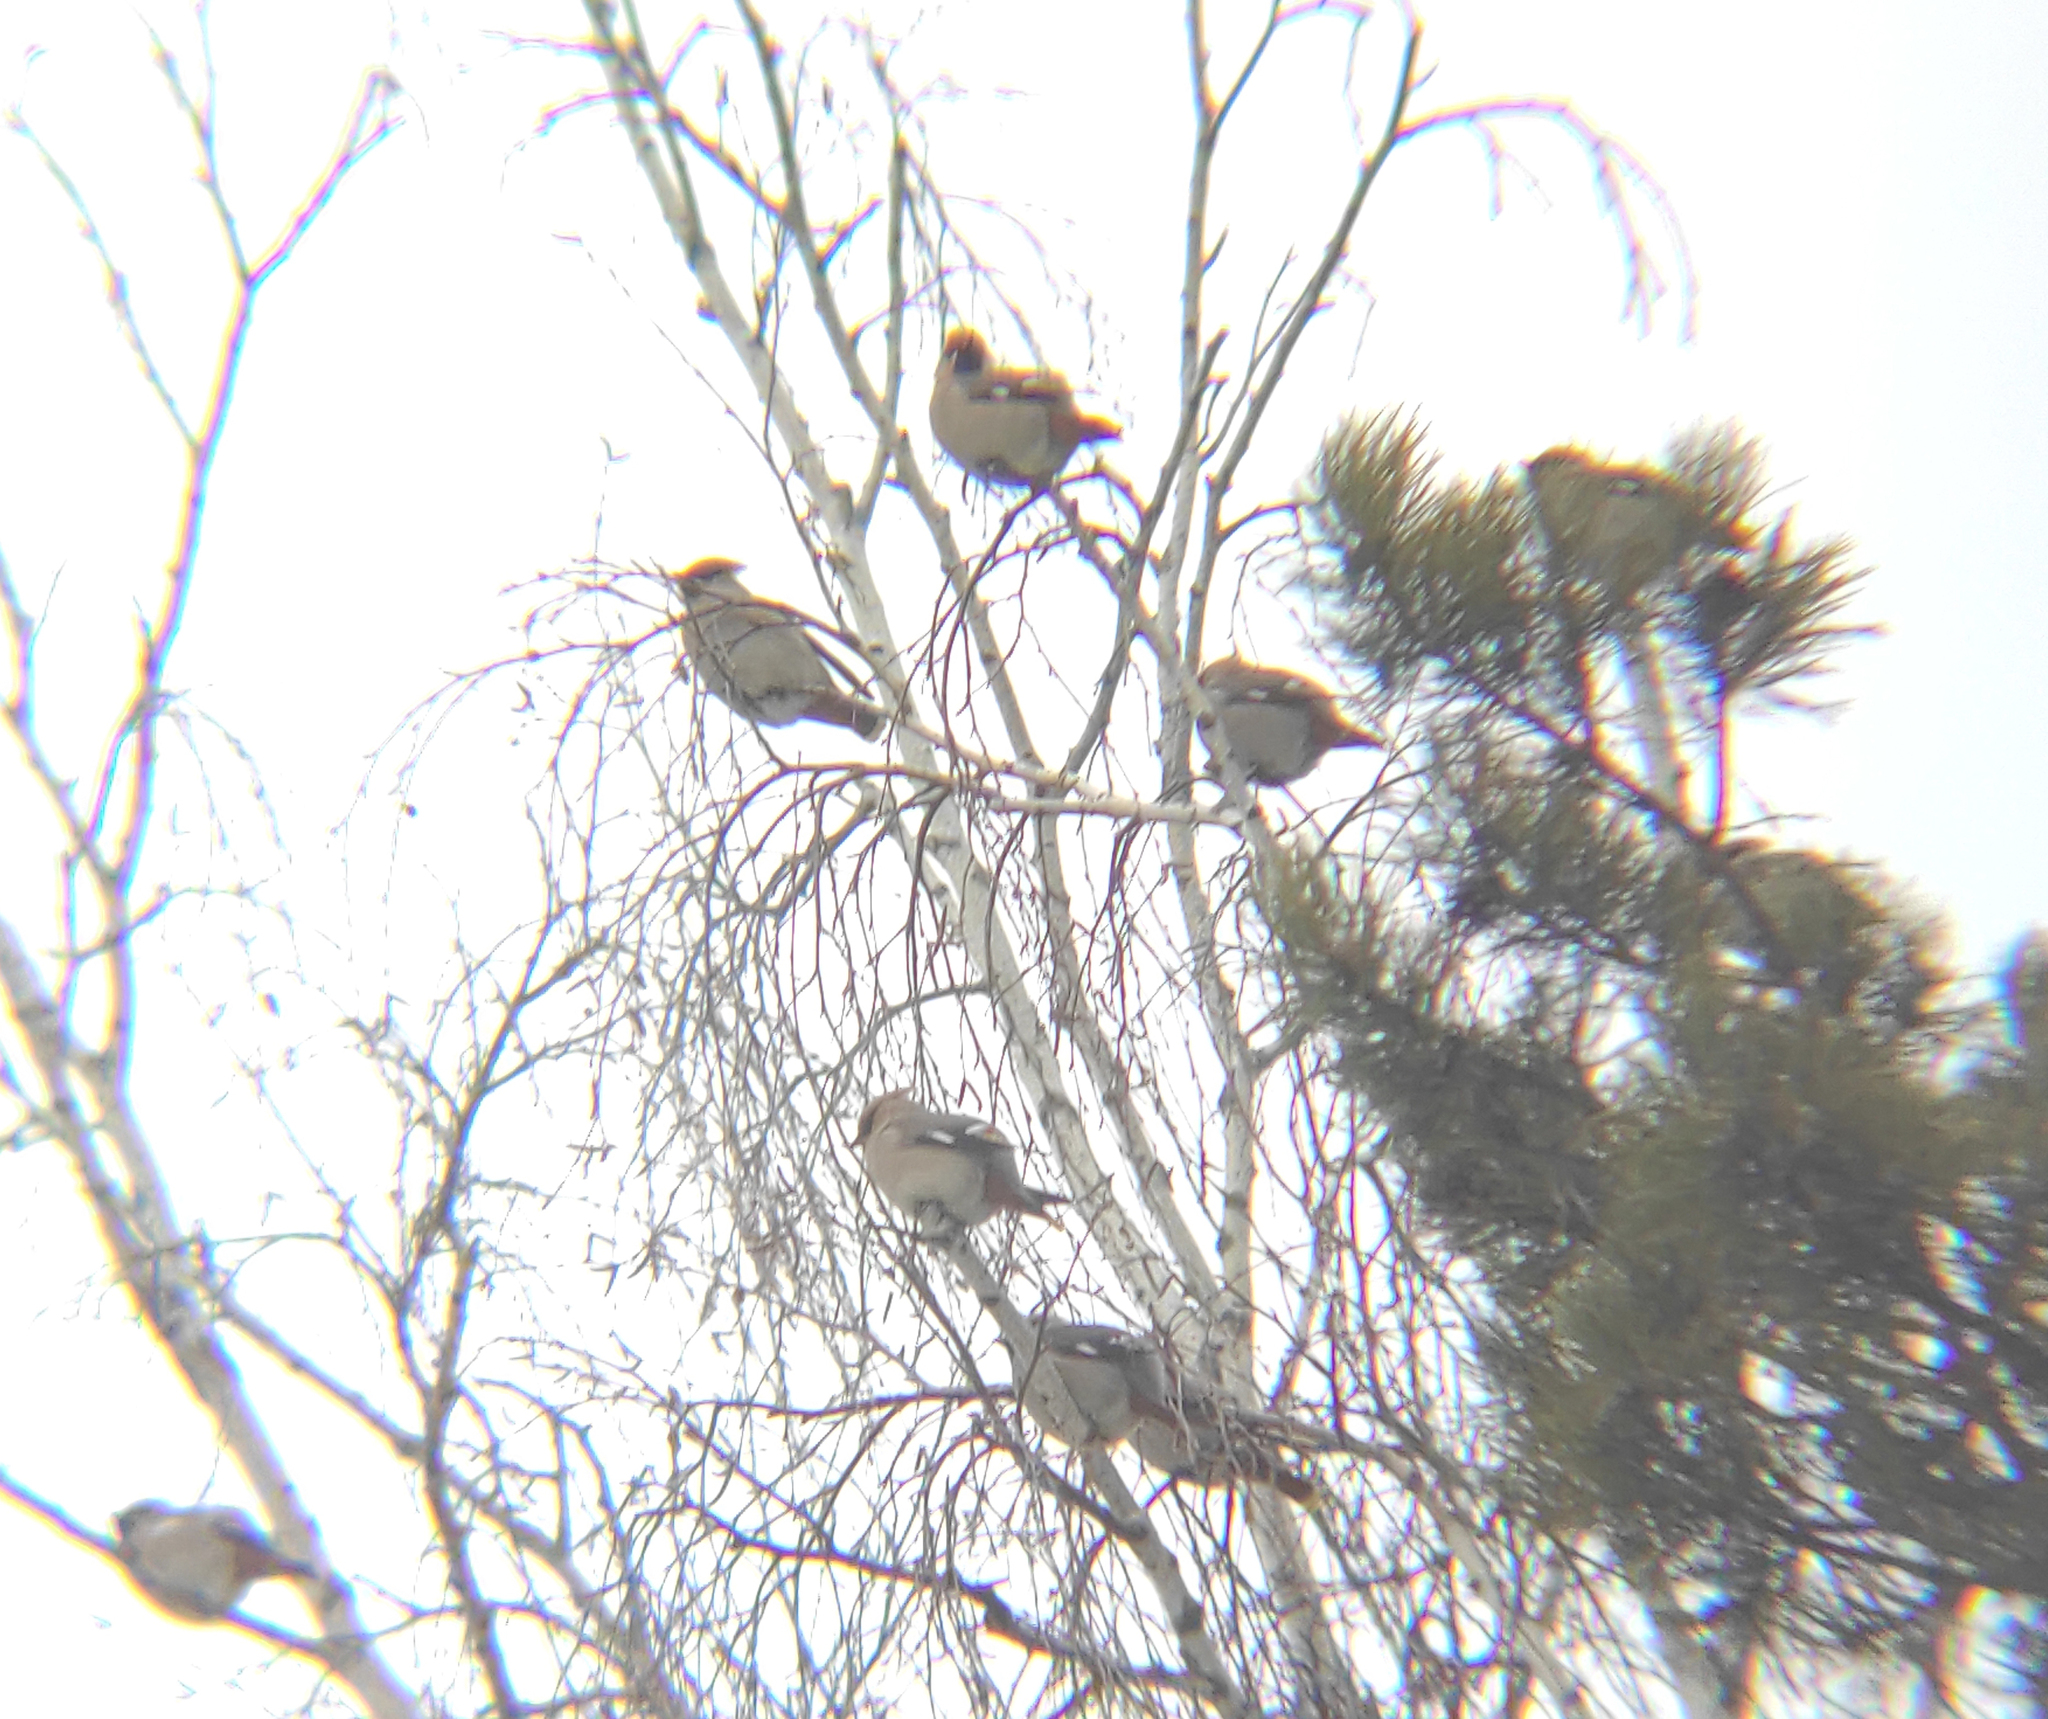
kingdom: Animalia
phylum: Chordata
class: Aves
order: Passeriformes
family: Bombycillidae
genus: Bombycilla
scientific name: Bombycilla garrulus
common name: Bohemian waxwing
